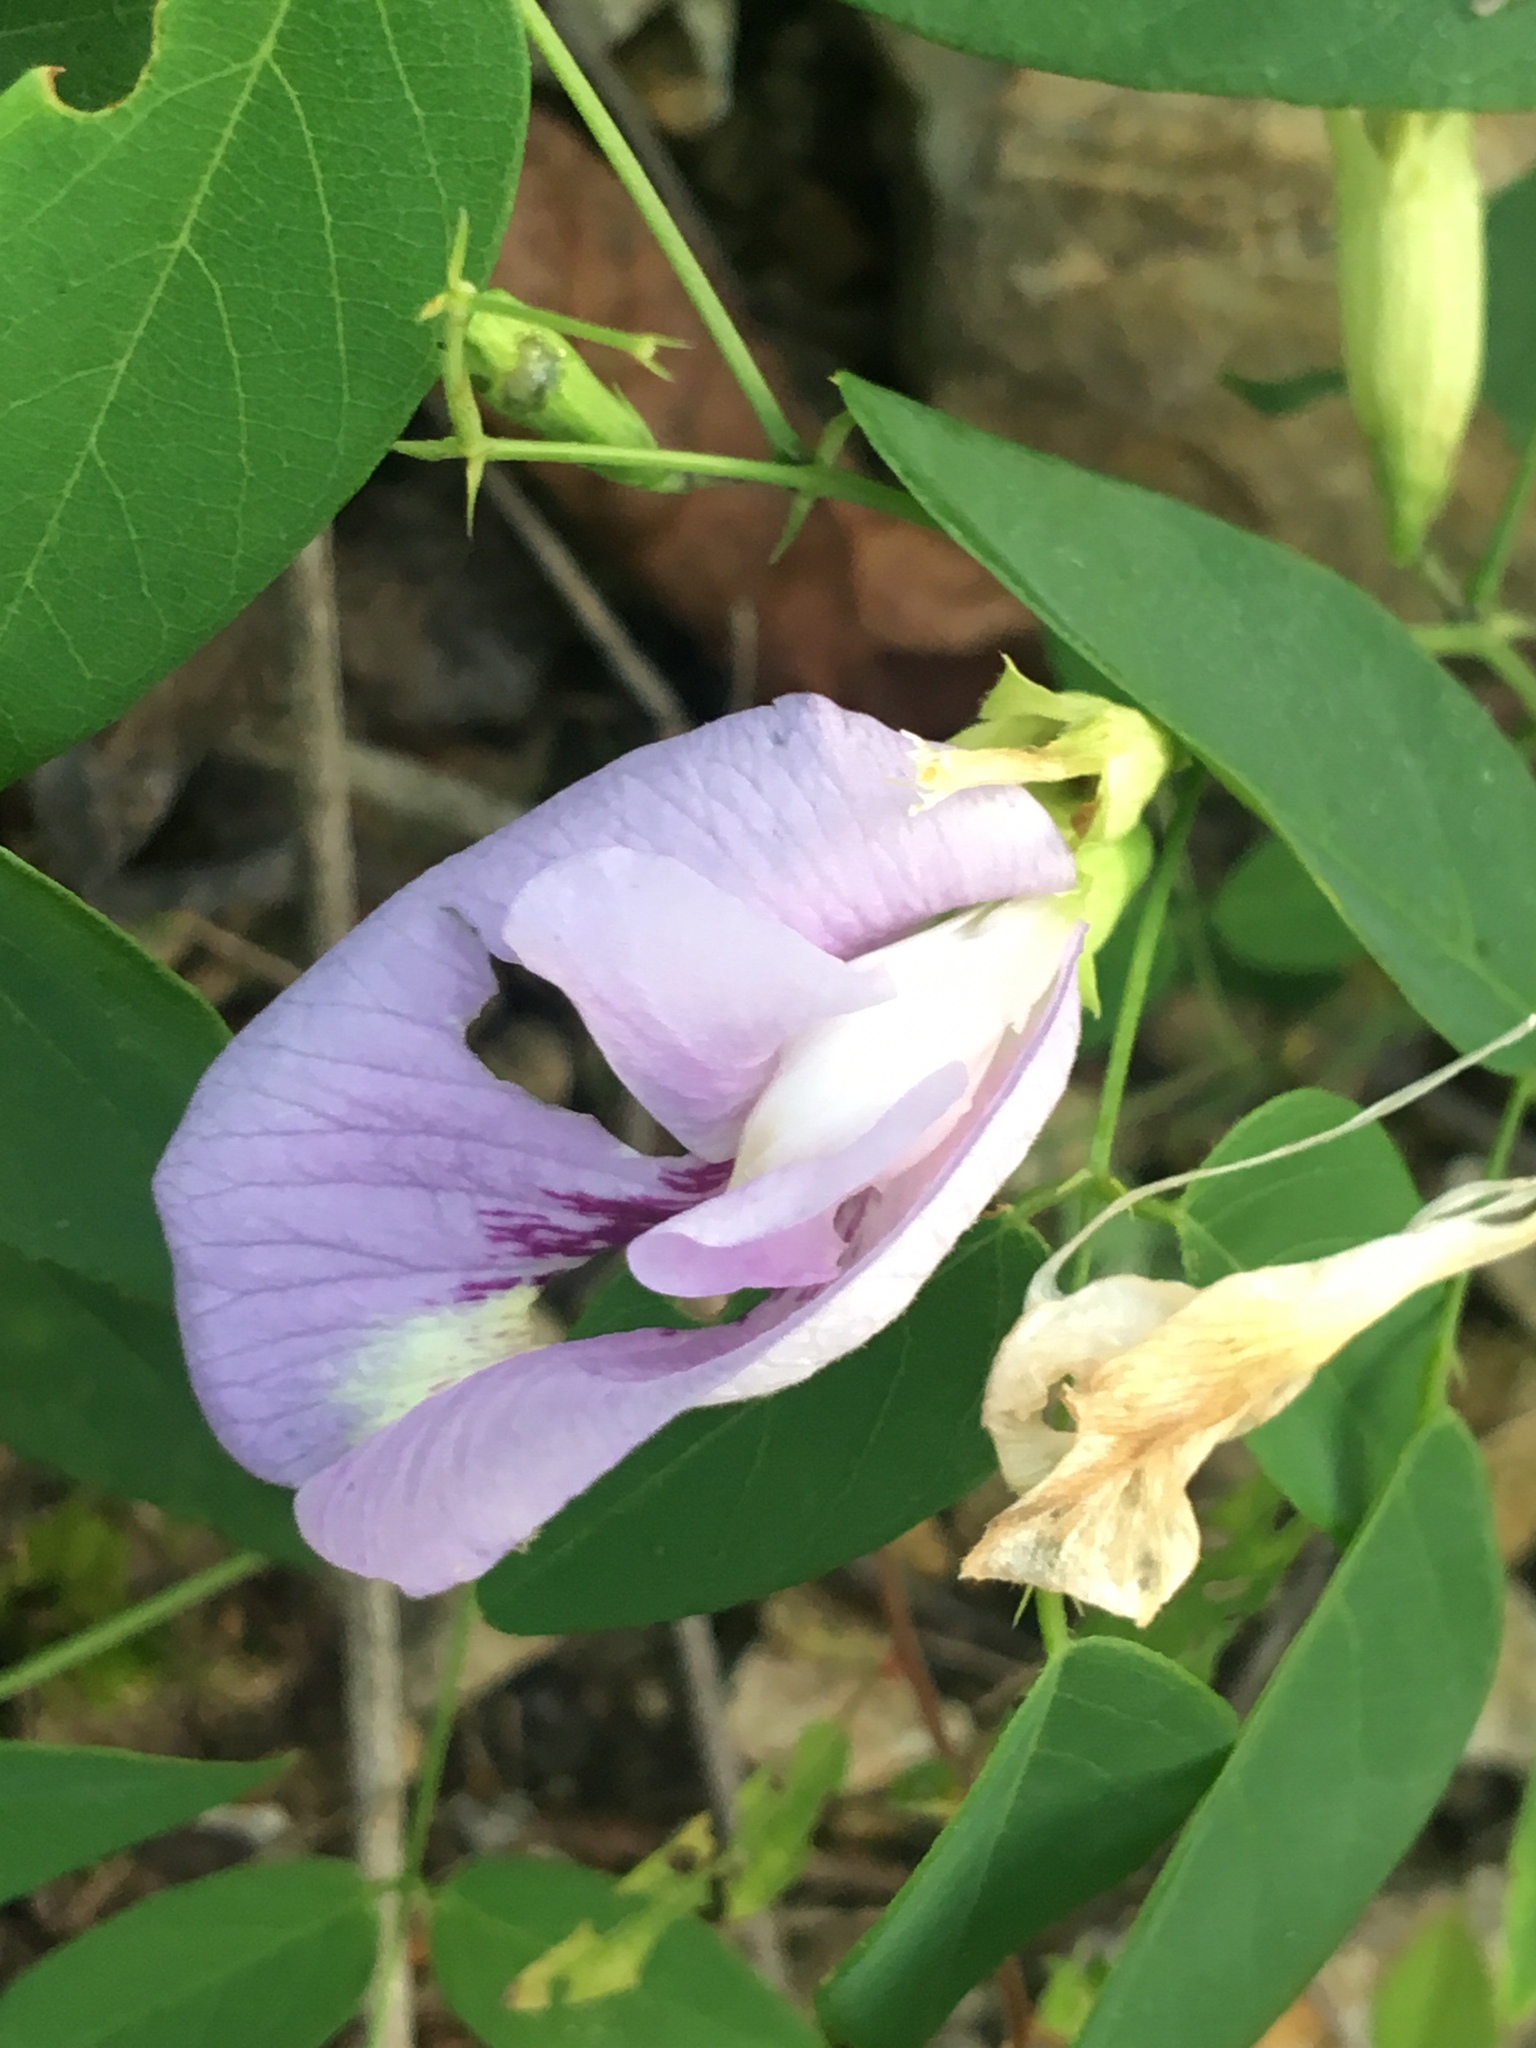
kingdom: Plantae
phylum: Tracheophyta
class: Magnoliopsida
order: Fabales
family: Fabaceae
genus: Clitoria
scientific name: Clitoria mariana
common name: Butterfly-pea
